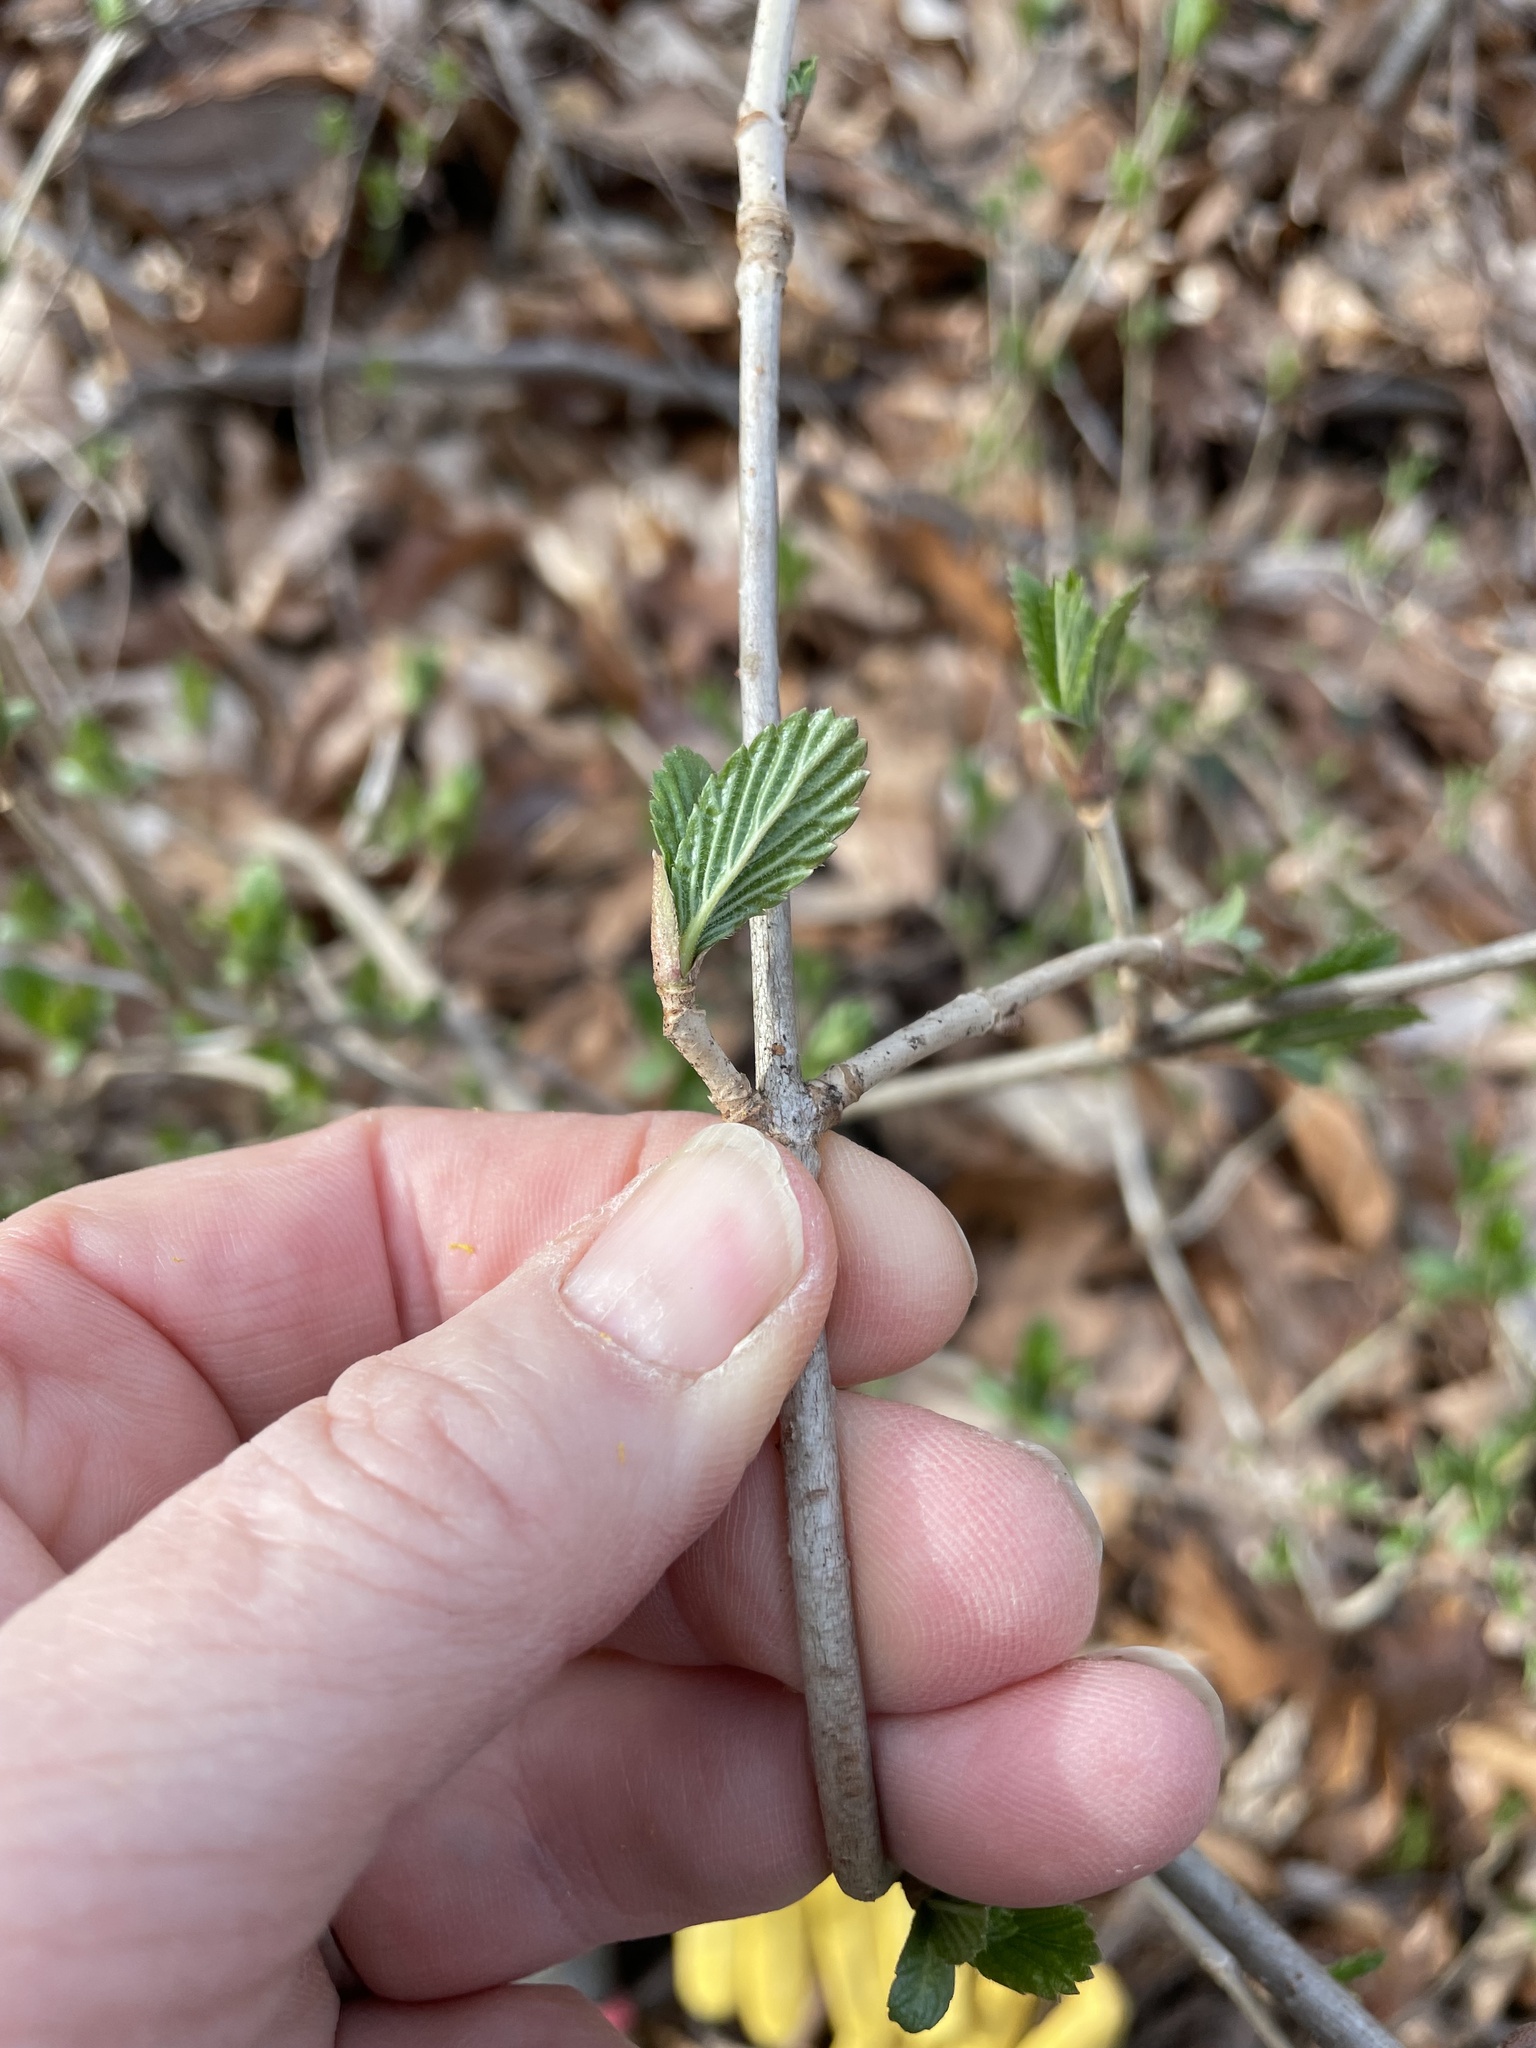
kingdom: Plantae
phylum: Tracheophyta
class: Magnoliopsida
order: Dipsacales
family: Viburnaceae
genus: Viburnum
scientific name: Viburnum sieboldii
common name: Siebold's arrowwood
